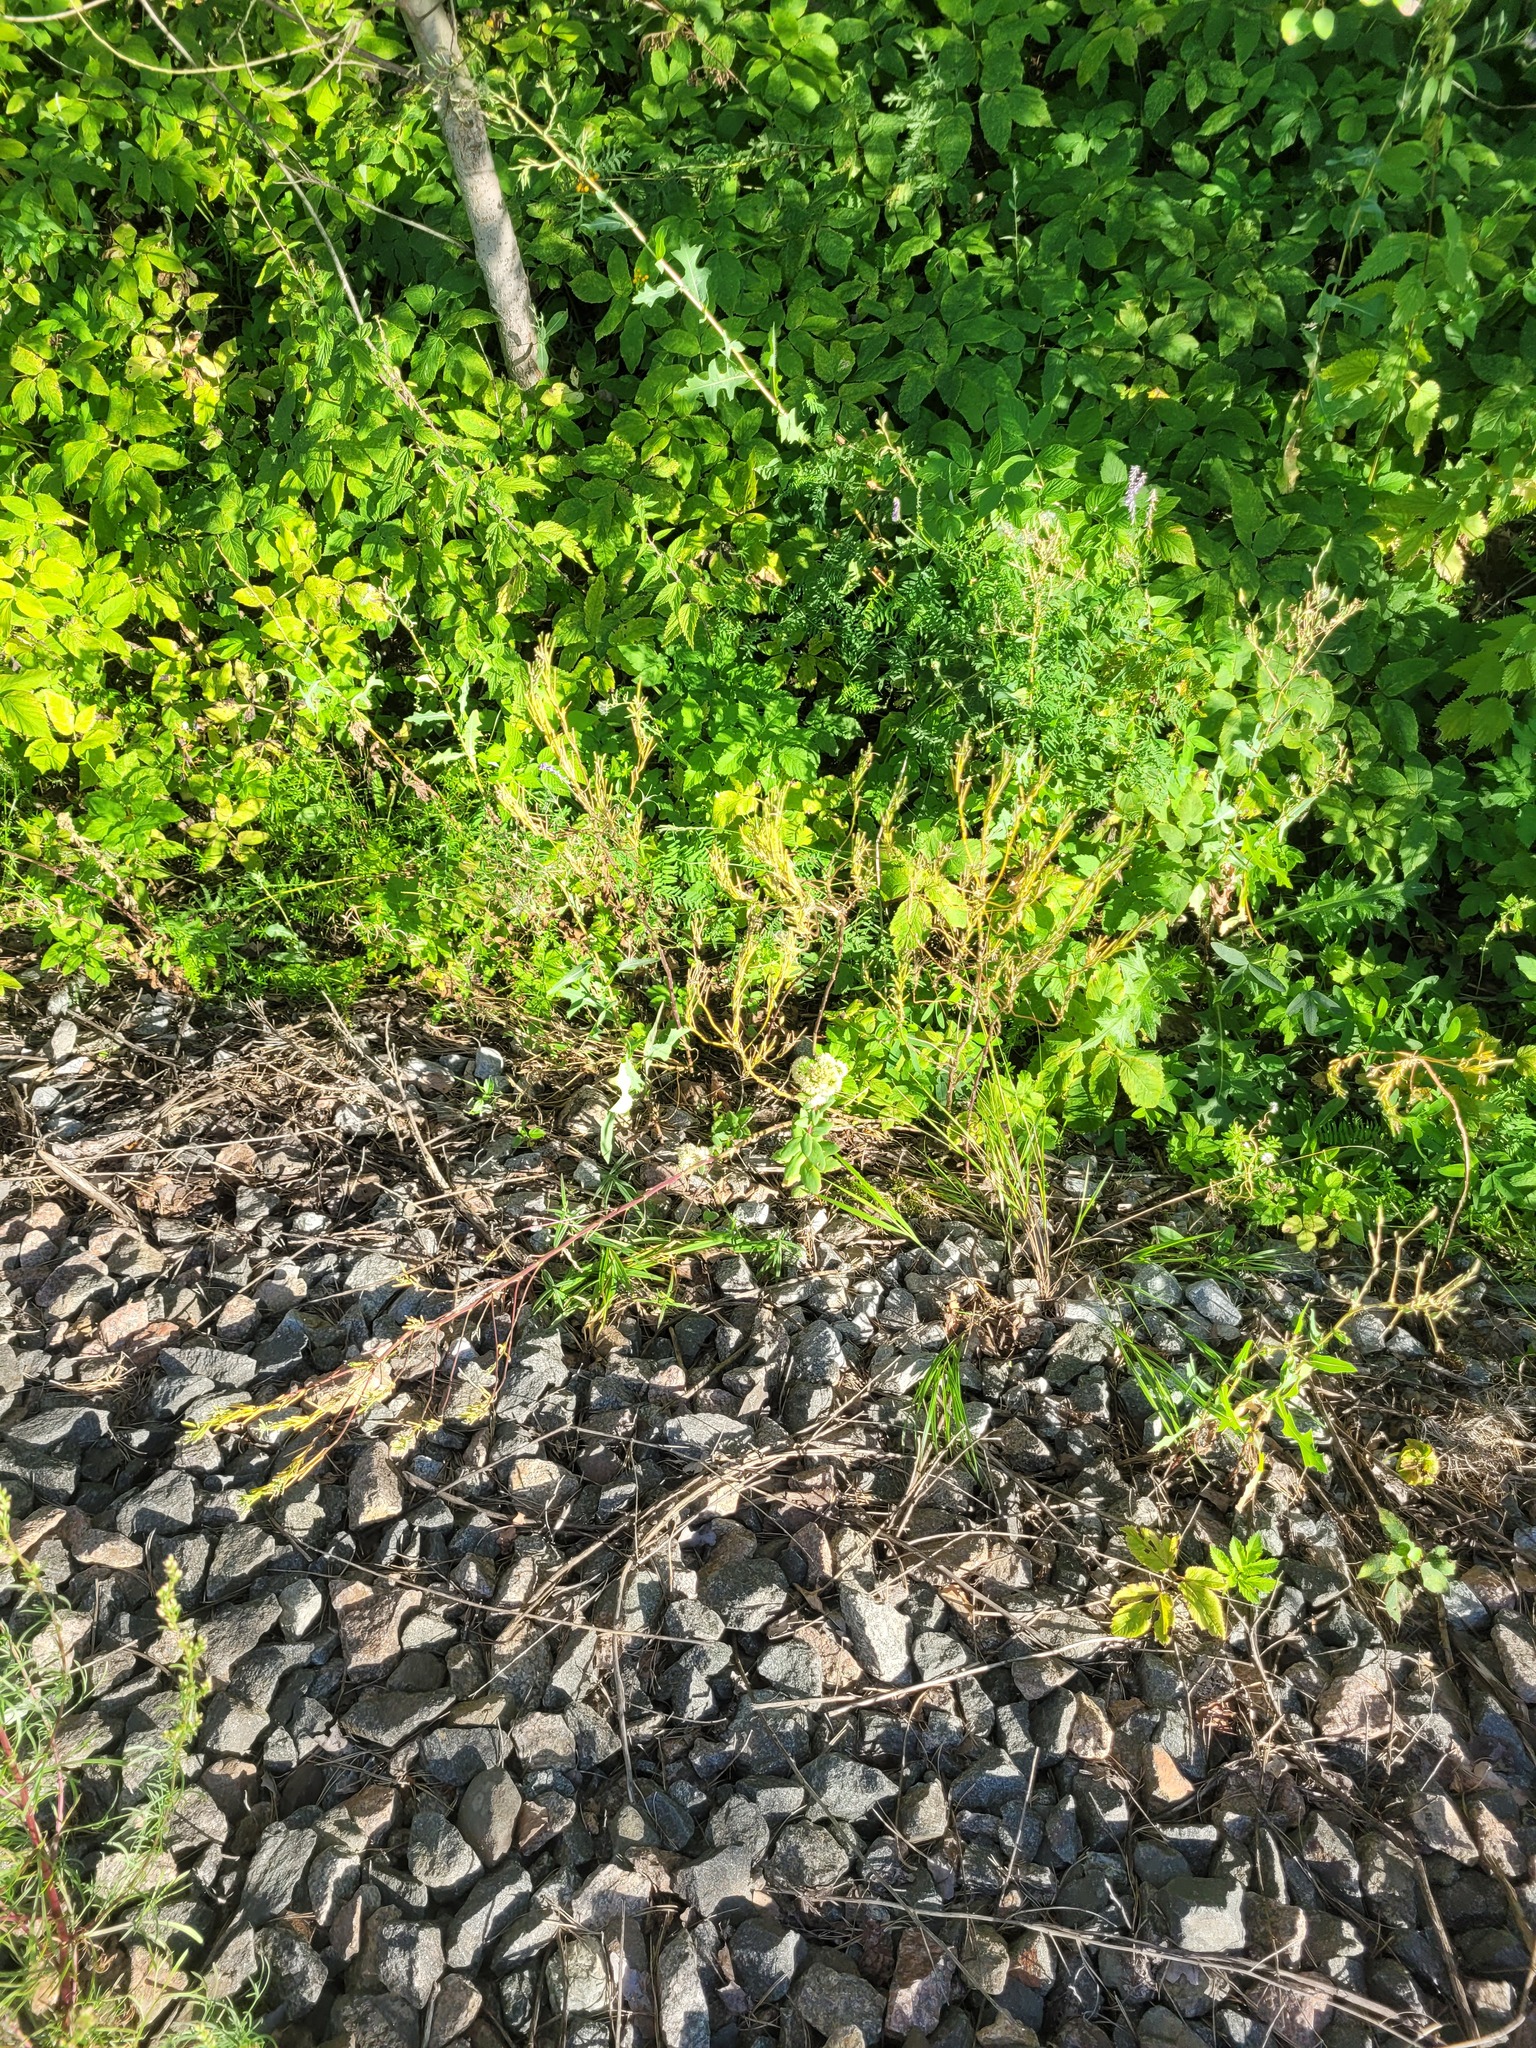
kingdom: Plantae
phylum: Tracheophyta
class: Magnoliopsida
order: Saxifragales
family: Crassulaceae
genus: Hylotelephium
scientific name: Hylotelephium maximum
